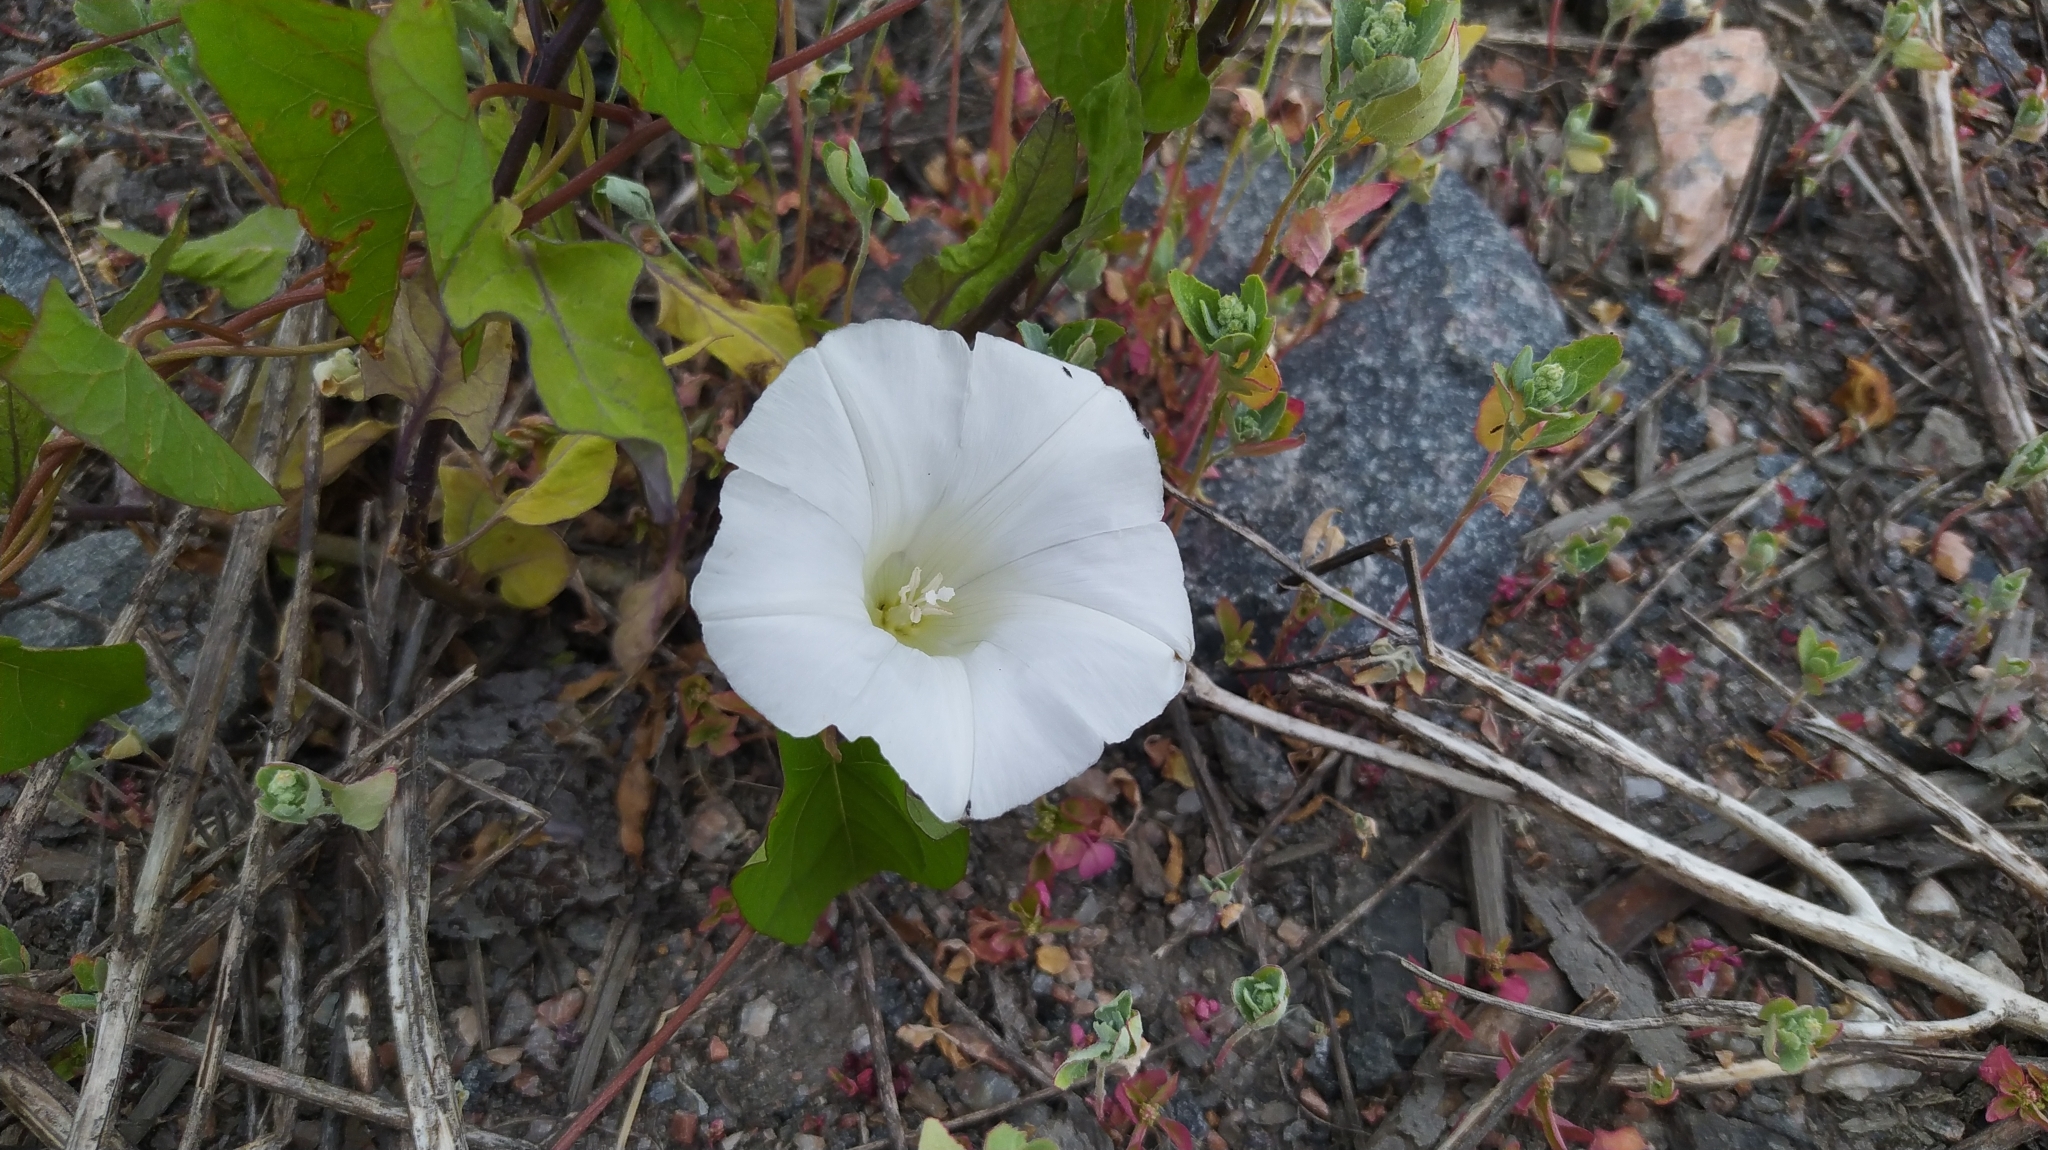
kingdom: Plantae
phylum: Tracheophyta
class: Magnoliopsida
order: Solanales
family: Convolvulaceae
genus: Calystegia
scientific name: Calystegia sepium
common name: Hedge bindweed
